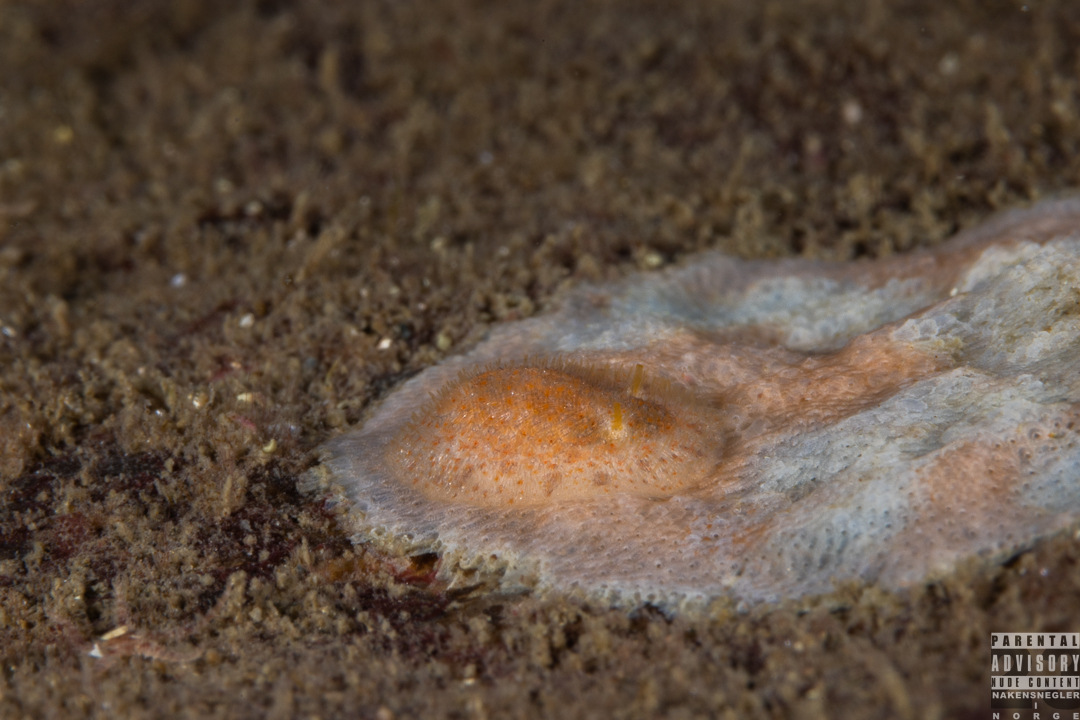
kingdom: Animalia
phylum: Mollusca
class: Gastropoda
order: Nudibranchia
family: Onchidorididae
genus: Idaliadoris
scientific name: Idaliadoris depressa
